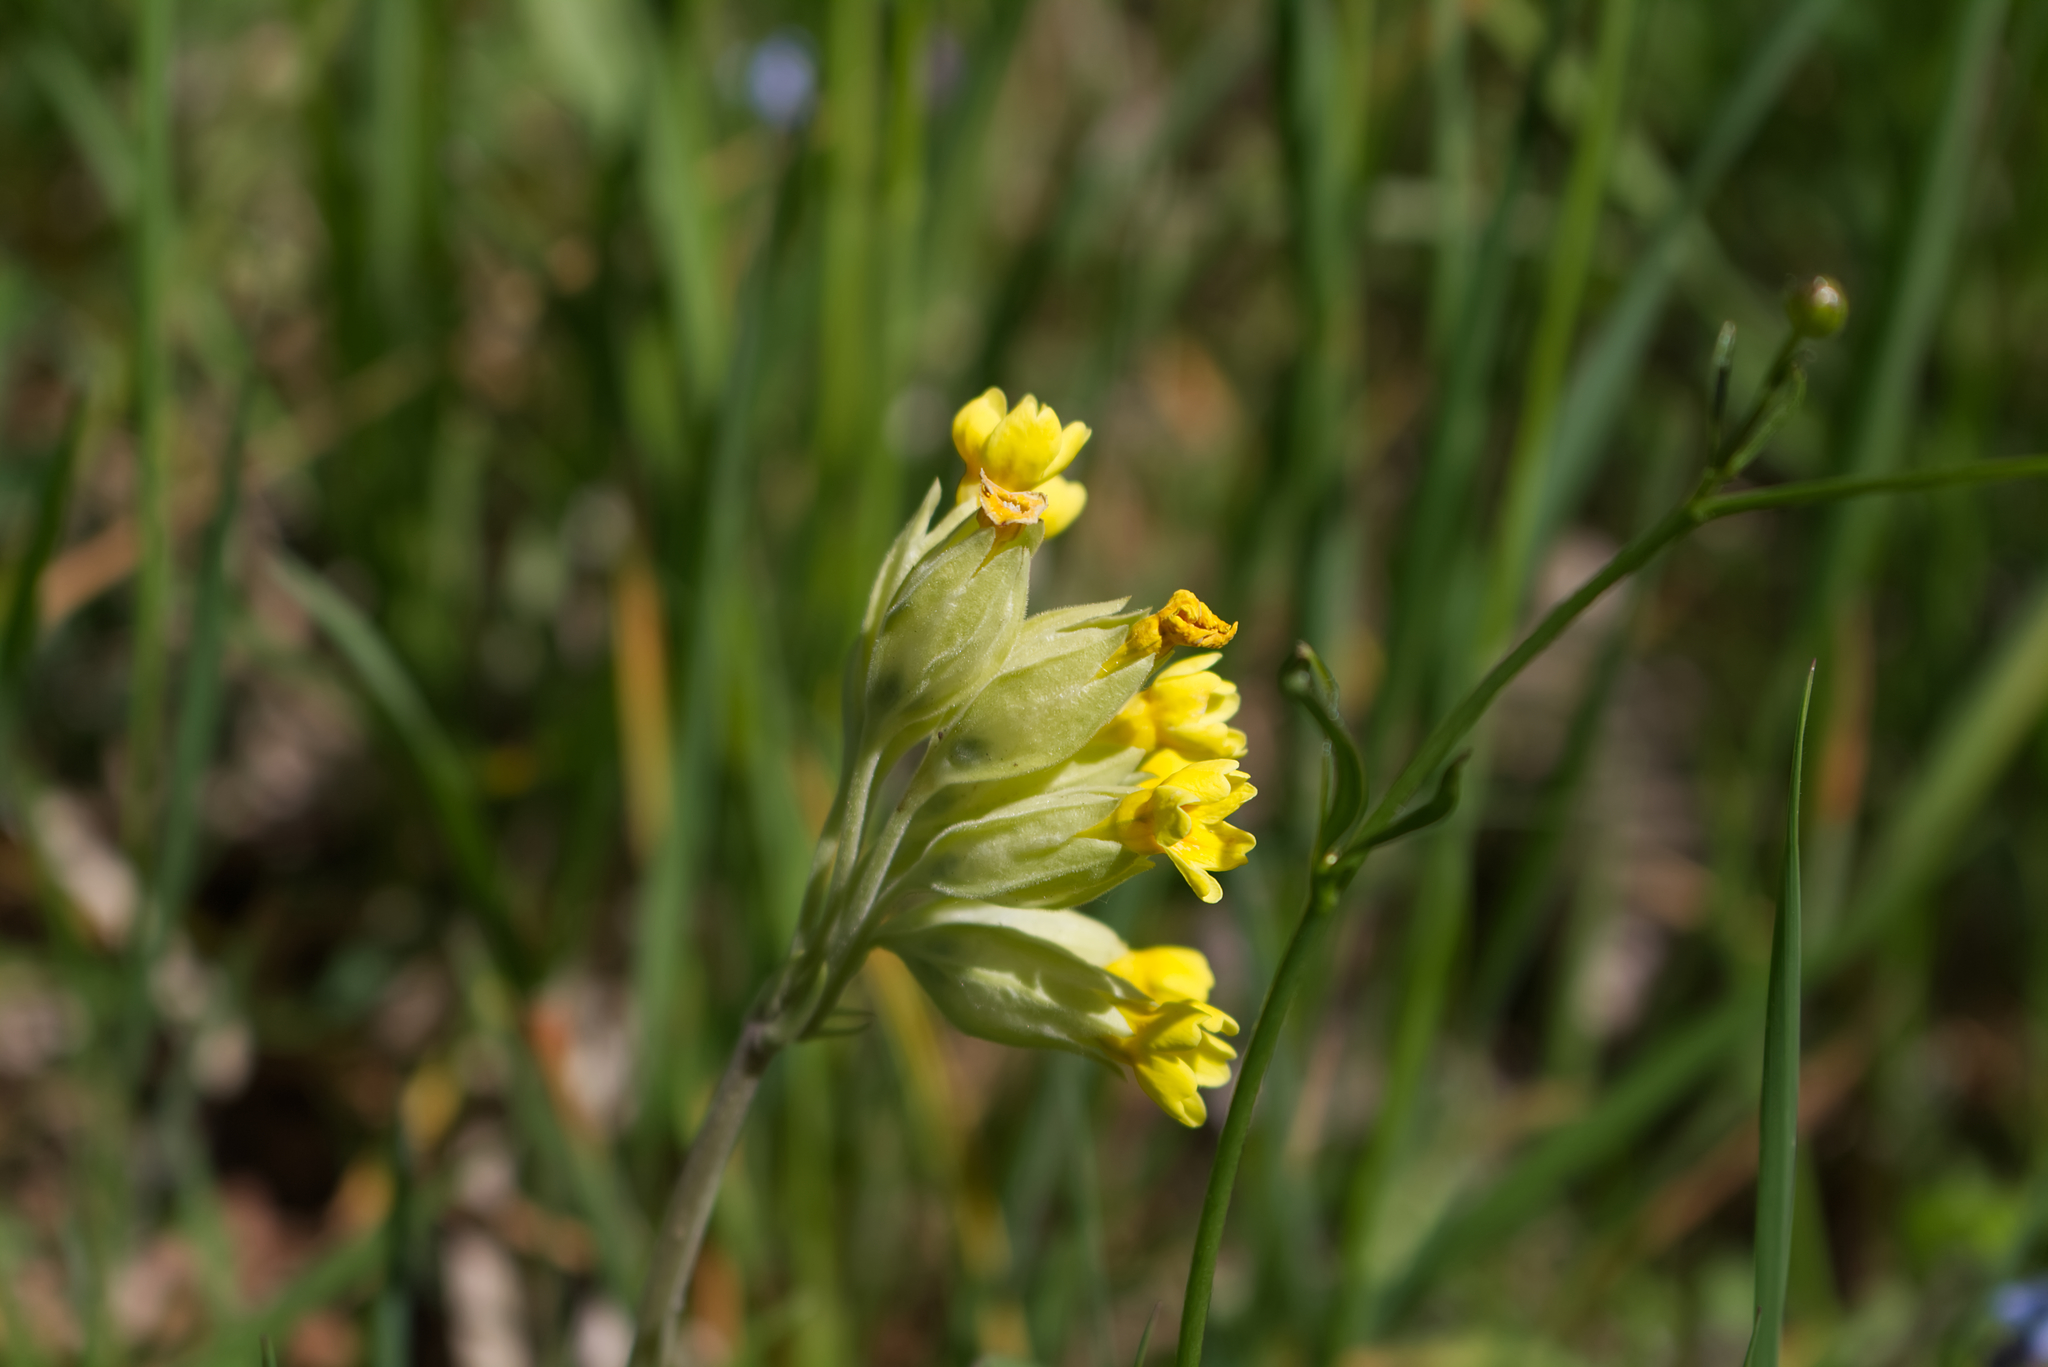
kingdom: Plantae
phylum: Tracheophyta
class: Magnoliopsida
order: Ericales
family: Primulaceae
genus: Primula
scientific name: Primula veris
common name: Cowslip
